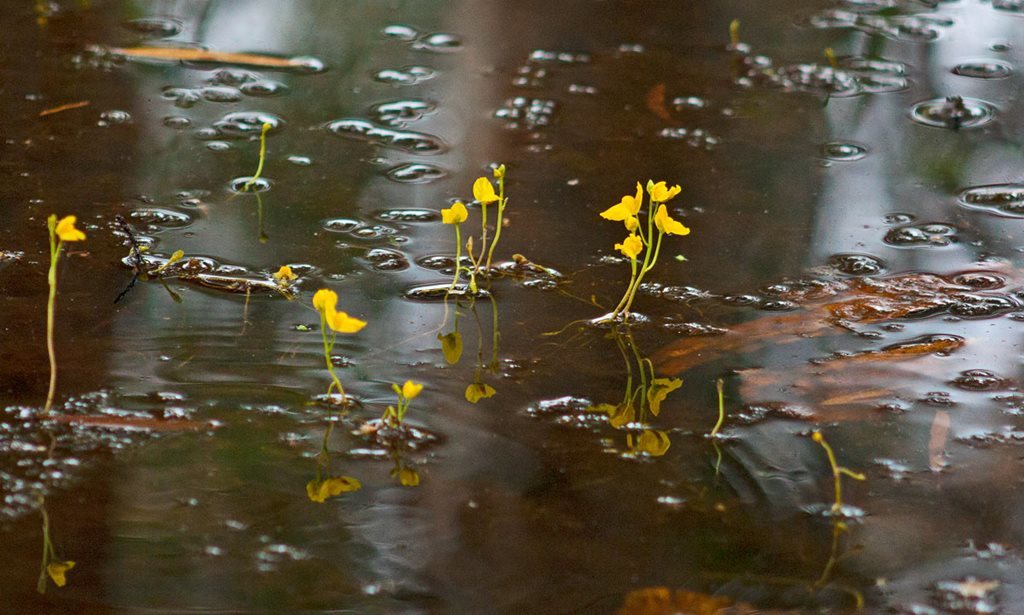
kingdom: Plantae
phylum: Tracheophyta
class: Magnoliopsida
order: Lamiales
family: Lentibulariaceae
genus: Utricularia
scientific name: Utricularia aurea
